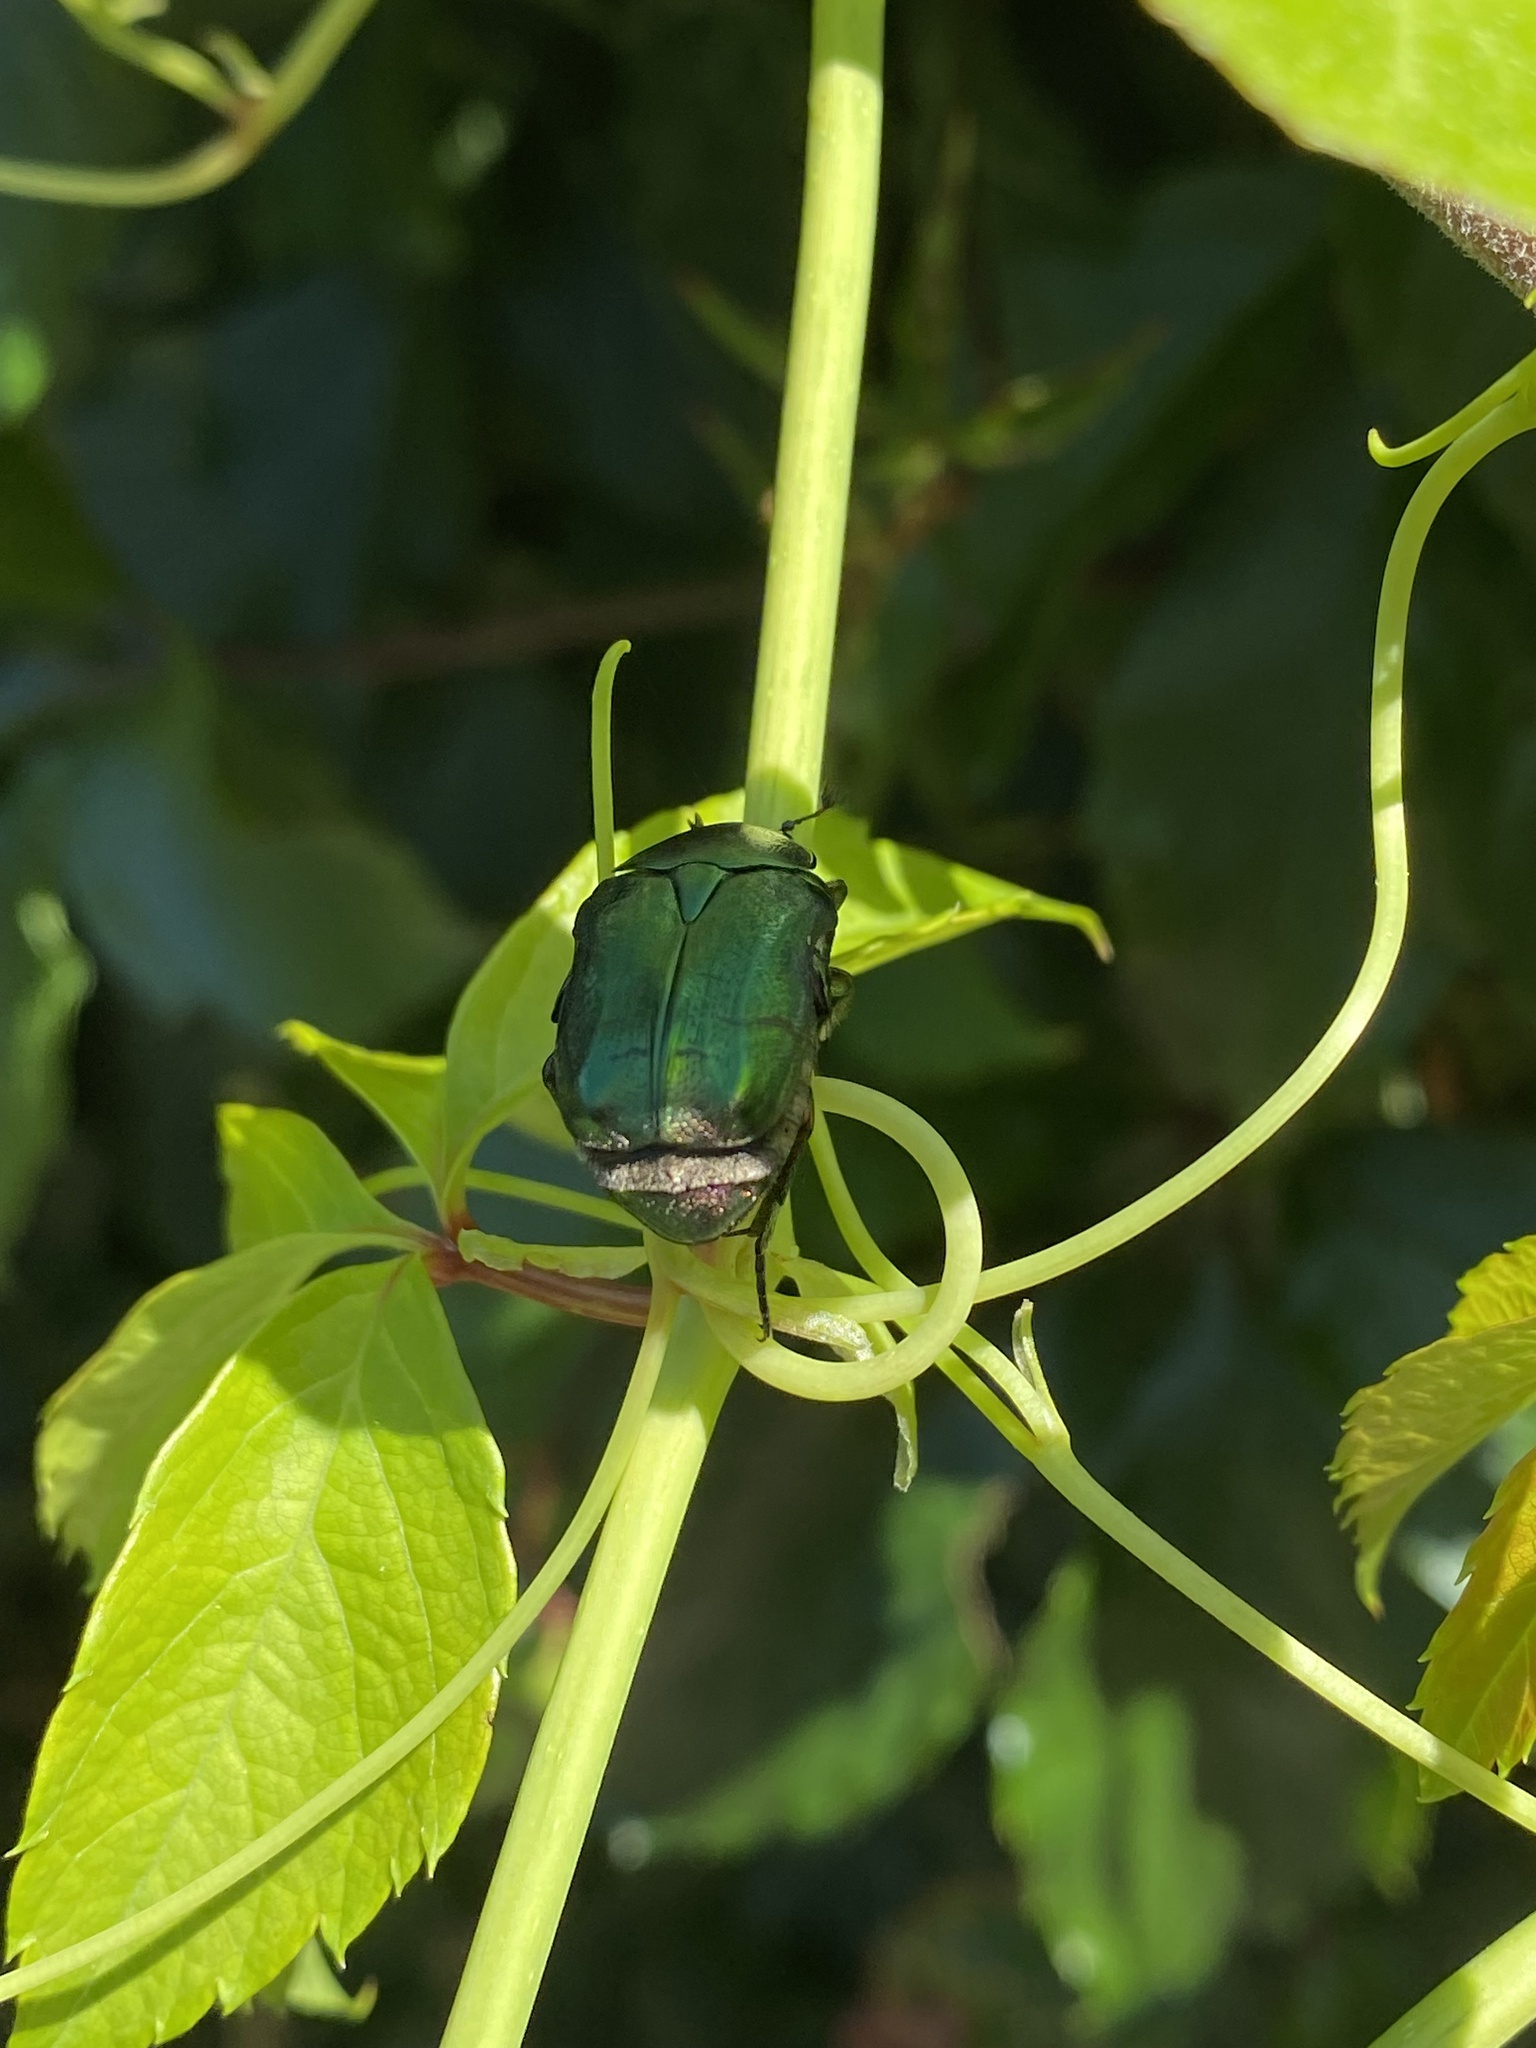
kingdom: Animalia
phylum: Arthropoda
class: Insecta
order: Coleoptera
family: Scarabaeidae
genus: Cetonia
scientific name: Cetonia aurata
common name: Rose chafer
